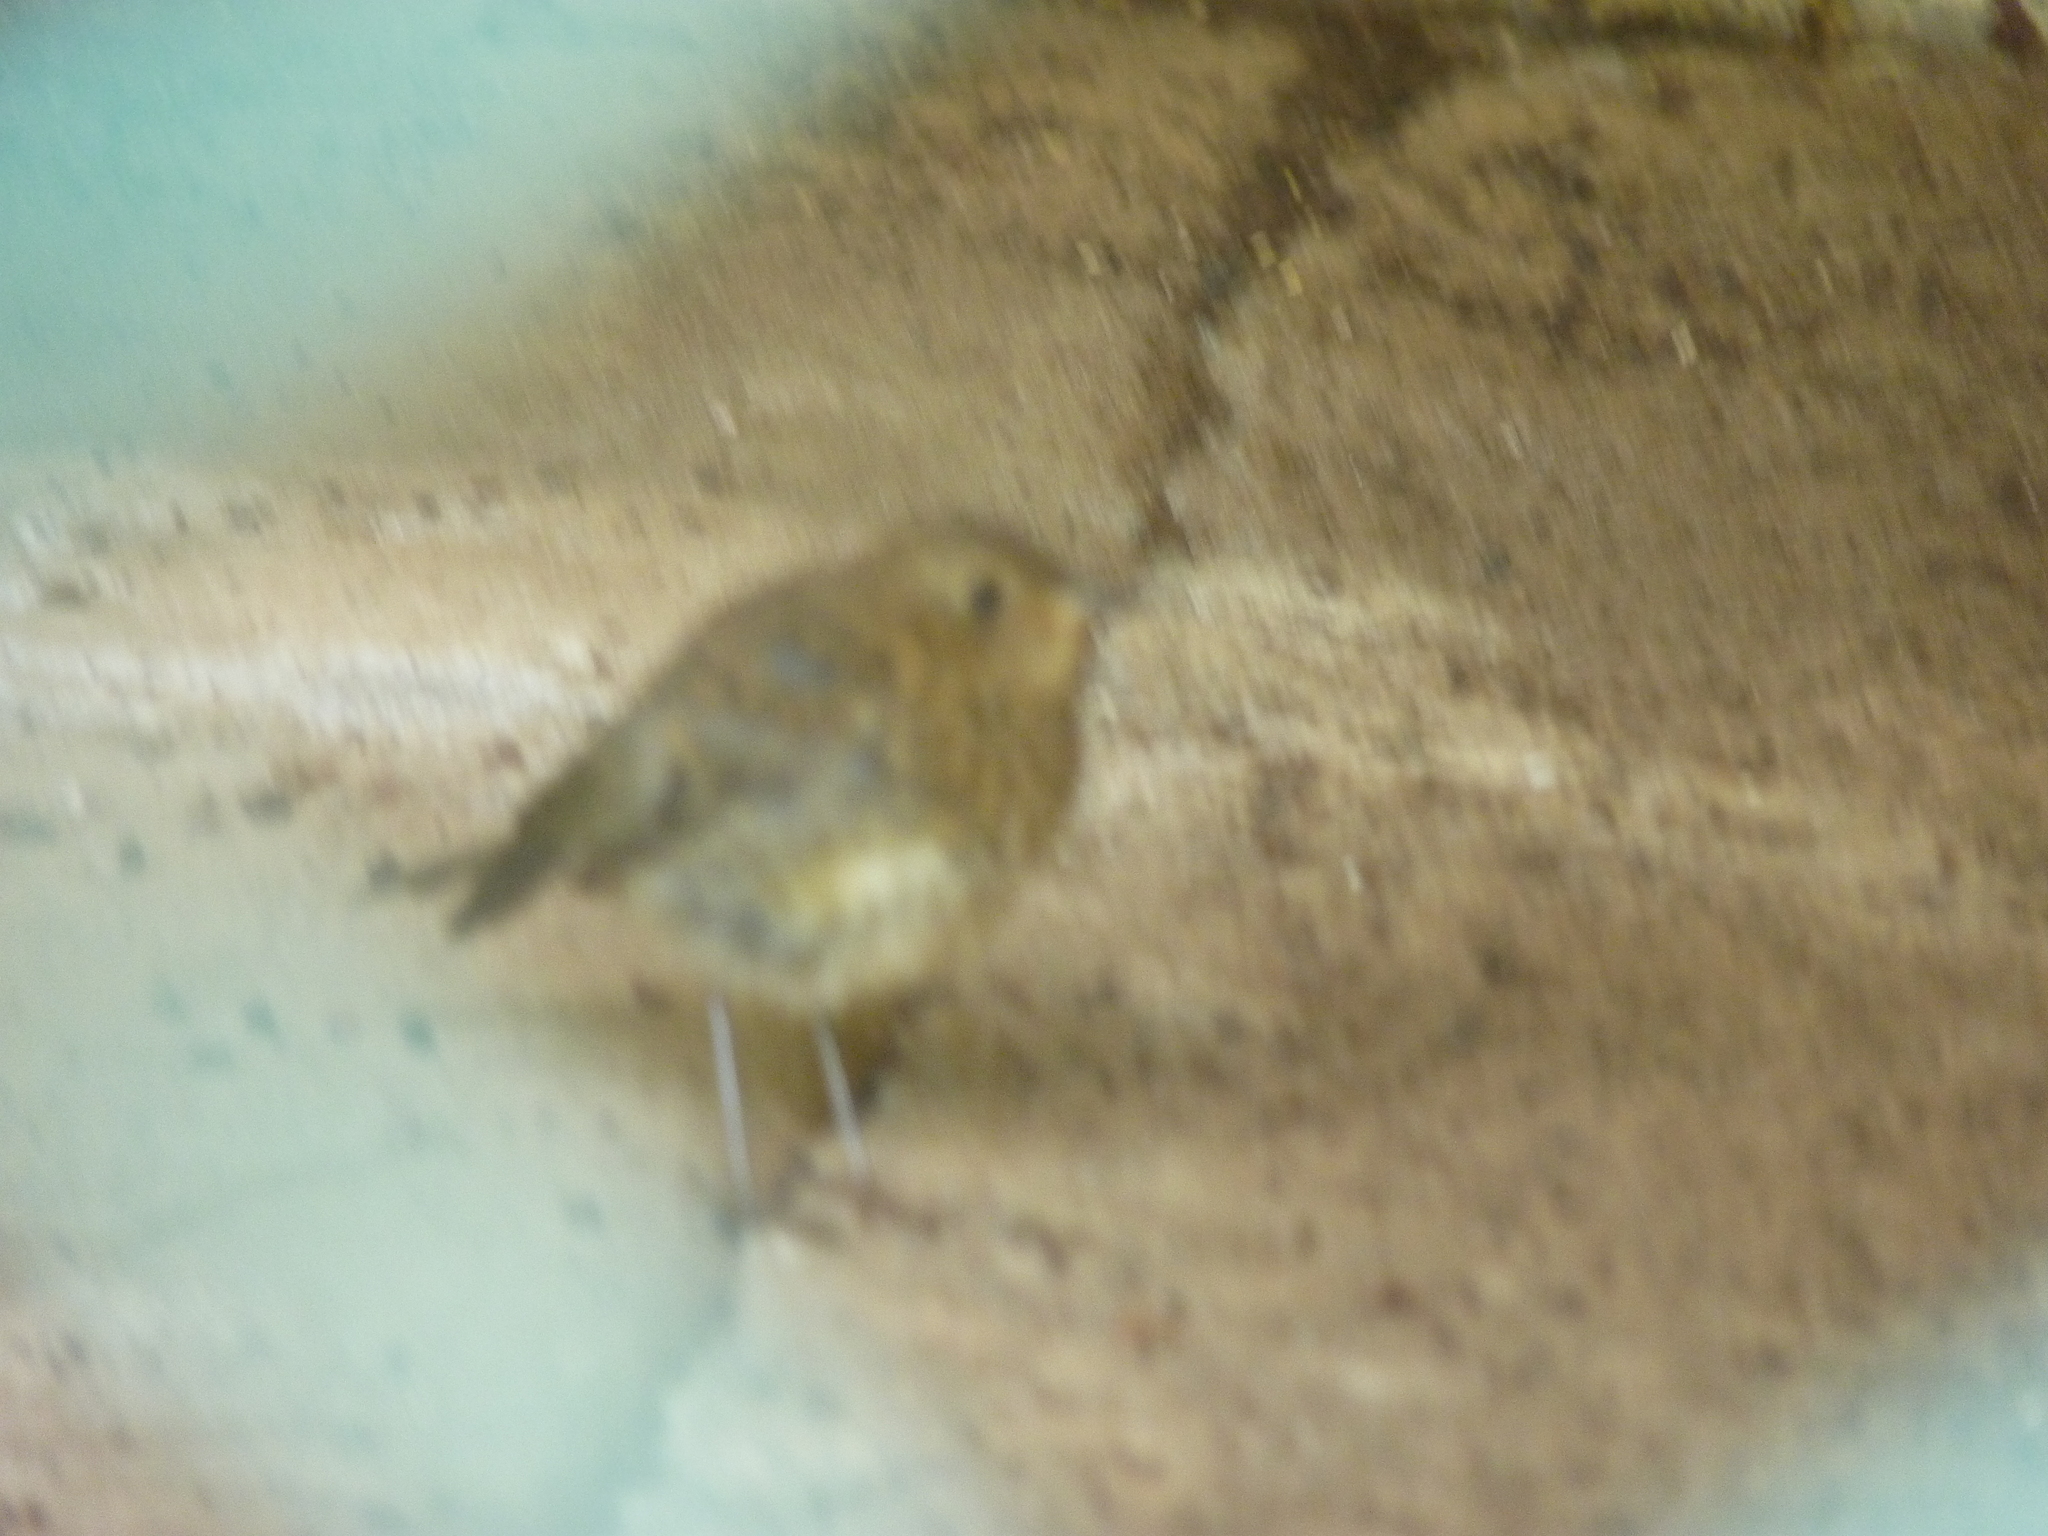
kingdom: Animalia
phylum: Chordata
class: Aves
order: Passeriformes
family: Muscicapidae
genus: Erithacus
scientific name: Erithacus rubecula
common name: European robin
